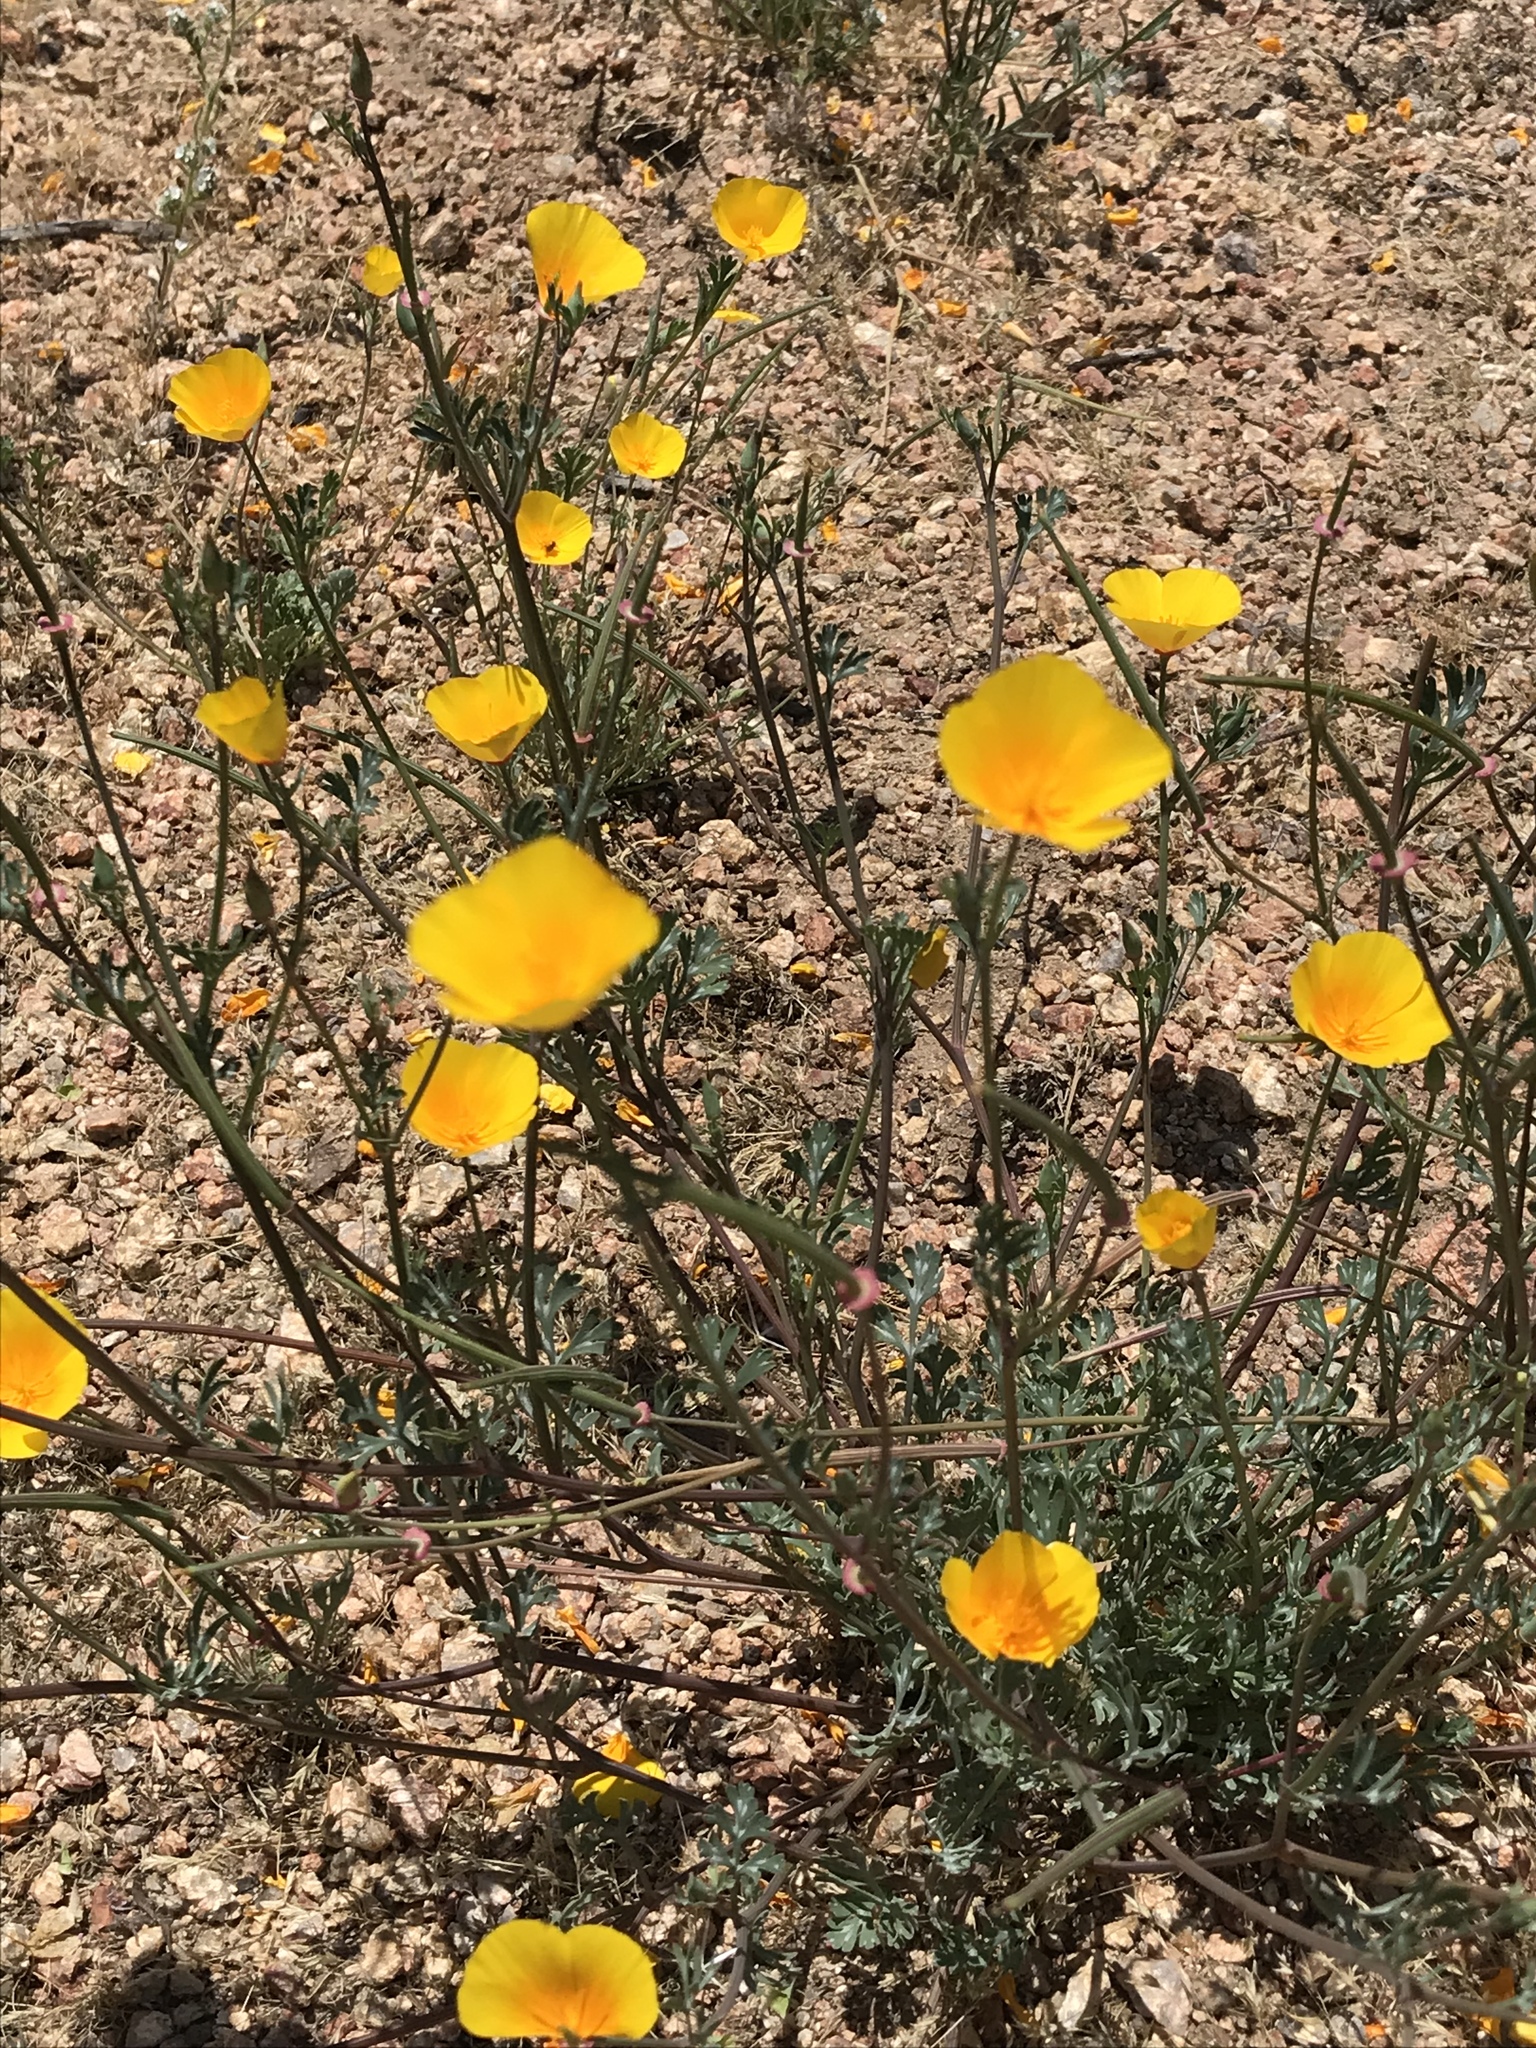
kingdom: Plantae
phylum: Tracheophyta
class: Magnoliopsida
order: Ranunculales
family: Papaveraceae
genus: Eschscholzia
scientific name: Eschscholzia californica
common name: California poppy
